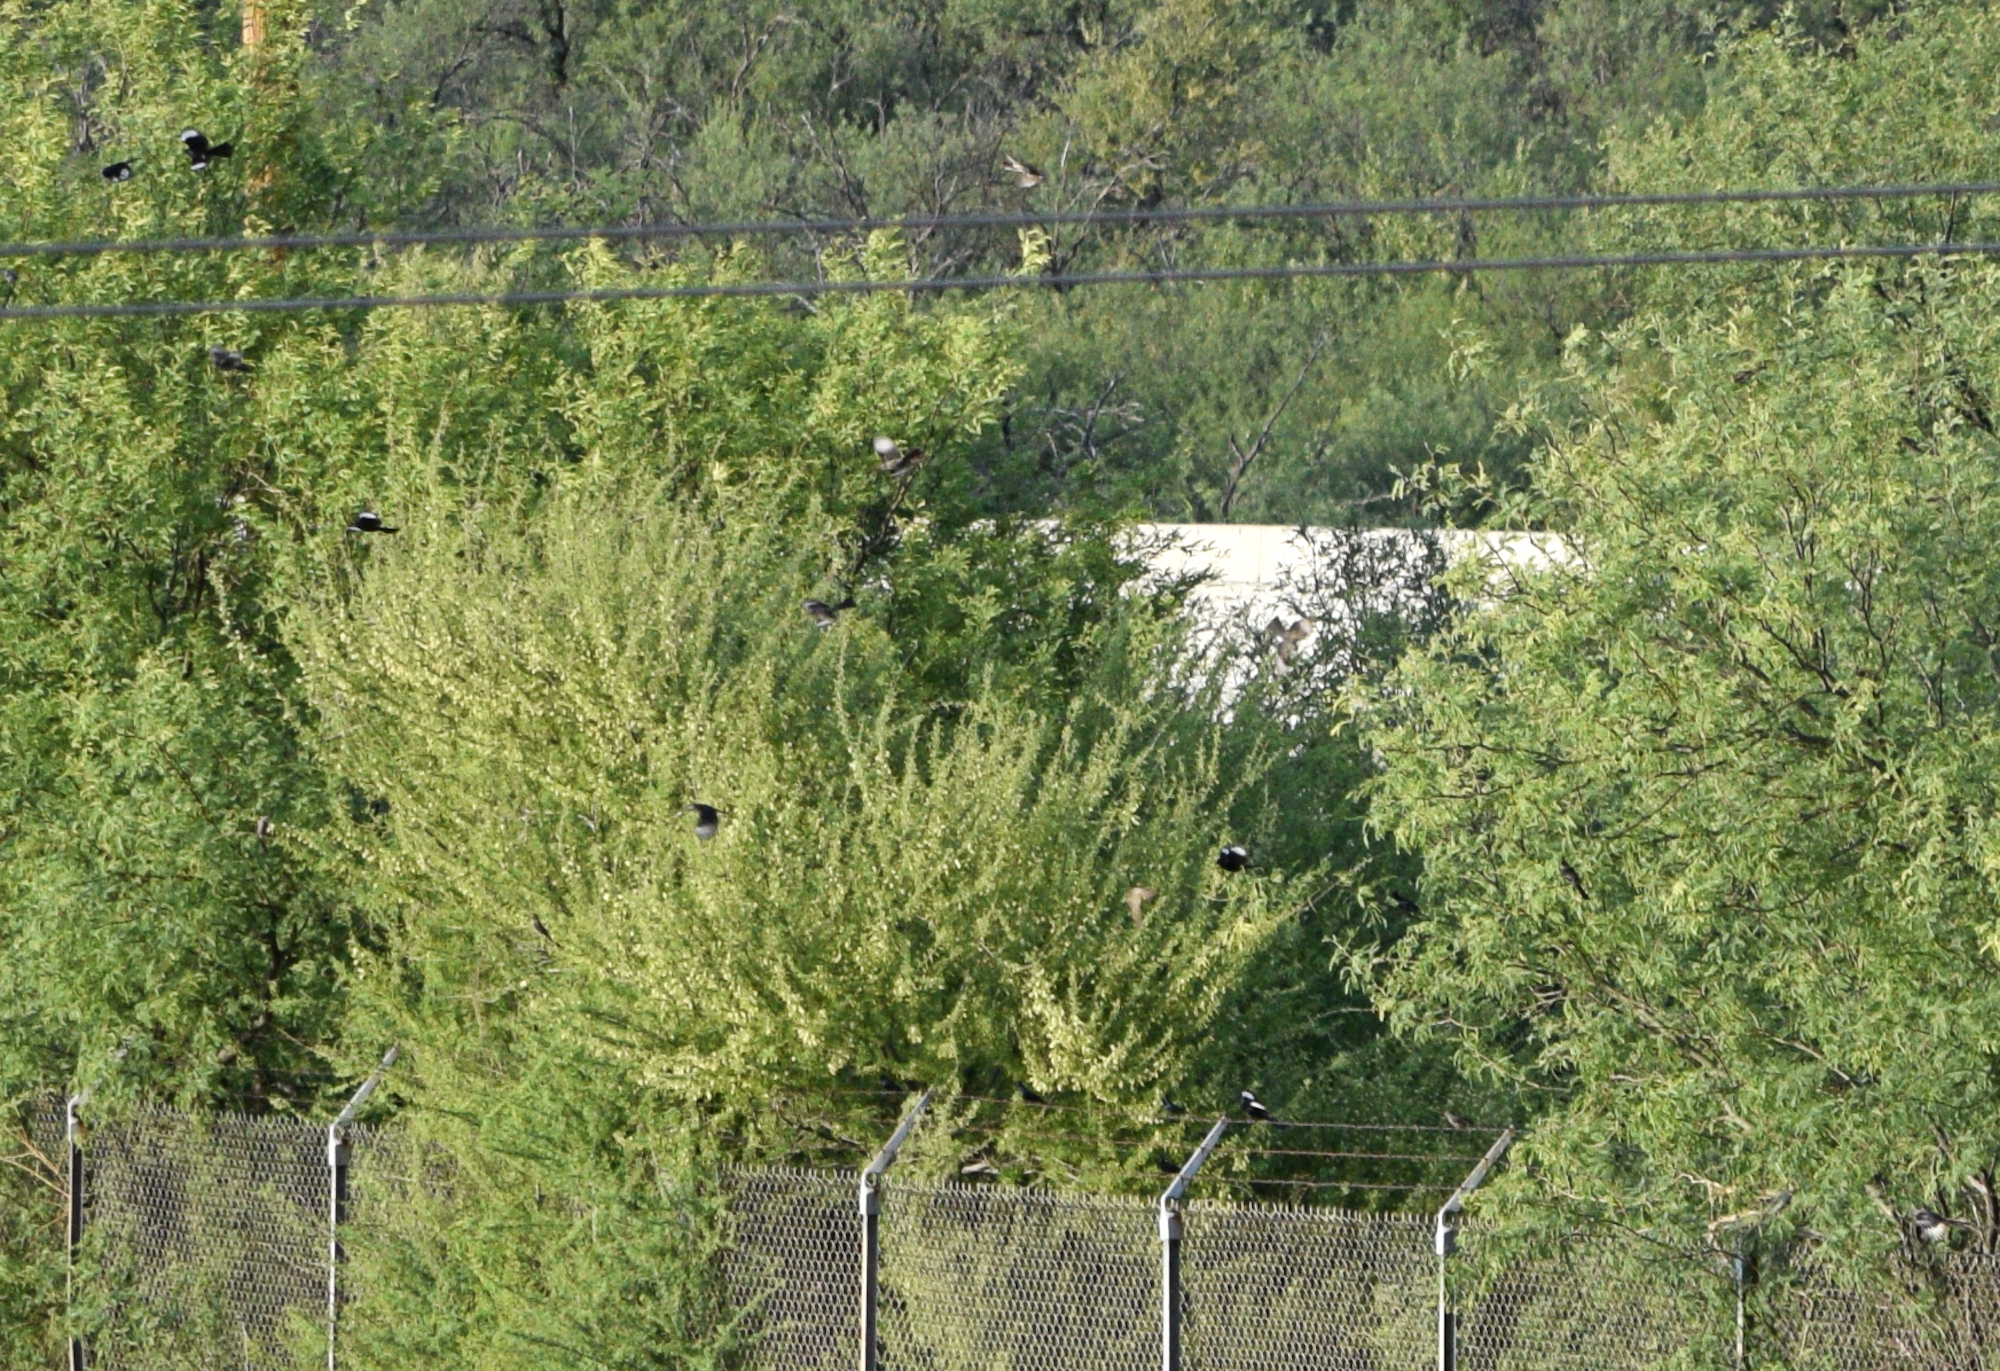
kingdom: Animalia
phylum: Chordata
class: Aves
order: Passeriformes
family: Ptilogonatidae
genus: Phainopepla
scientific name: Phainopepla nitens
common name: Phainopepla
